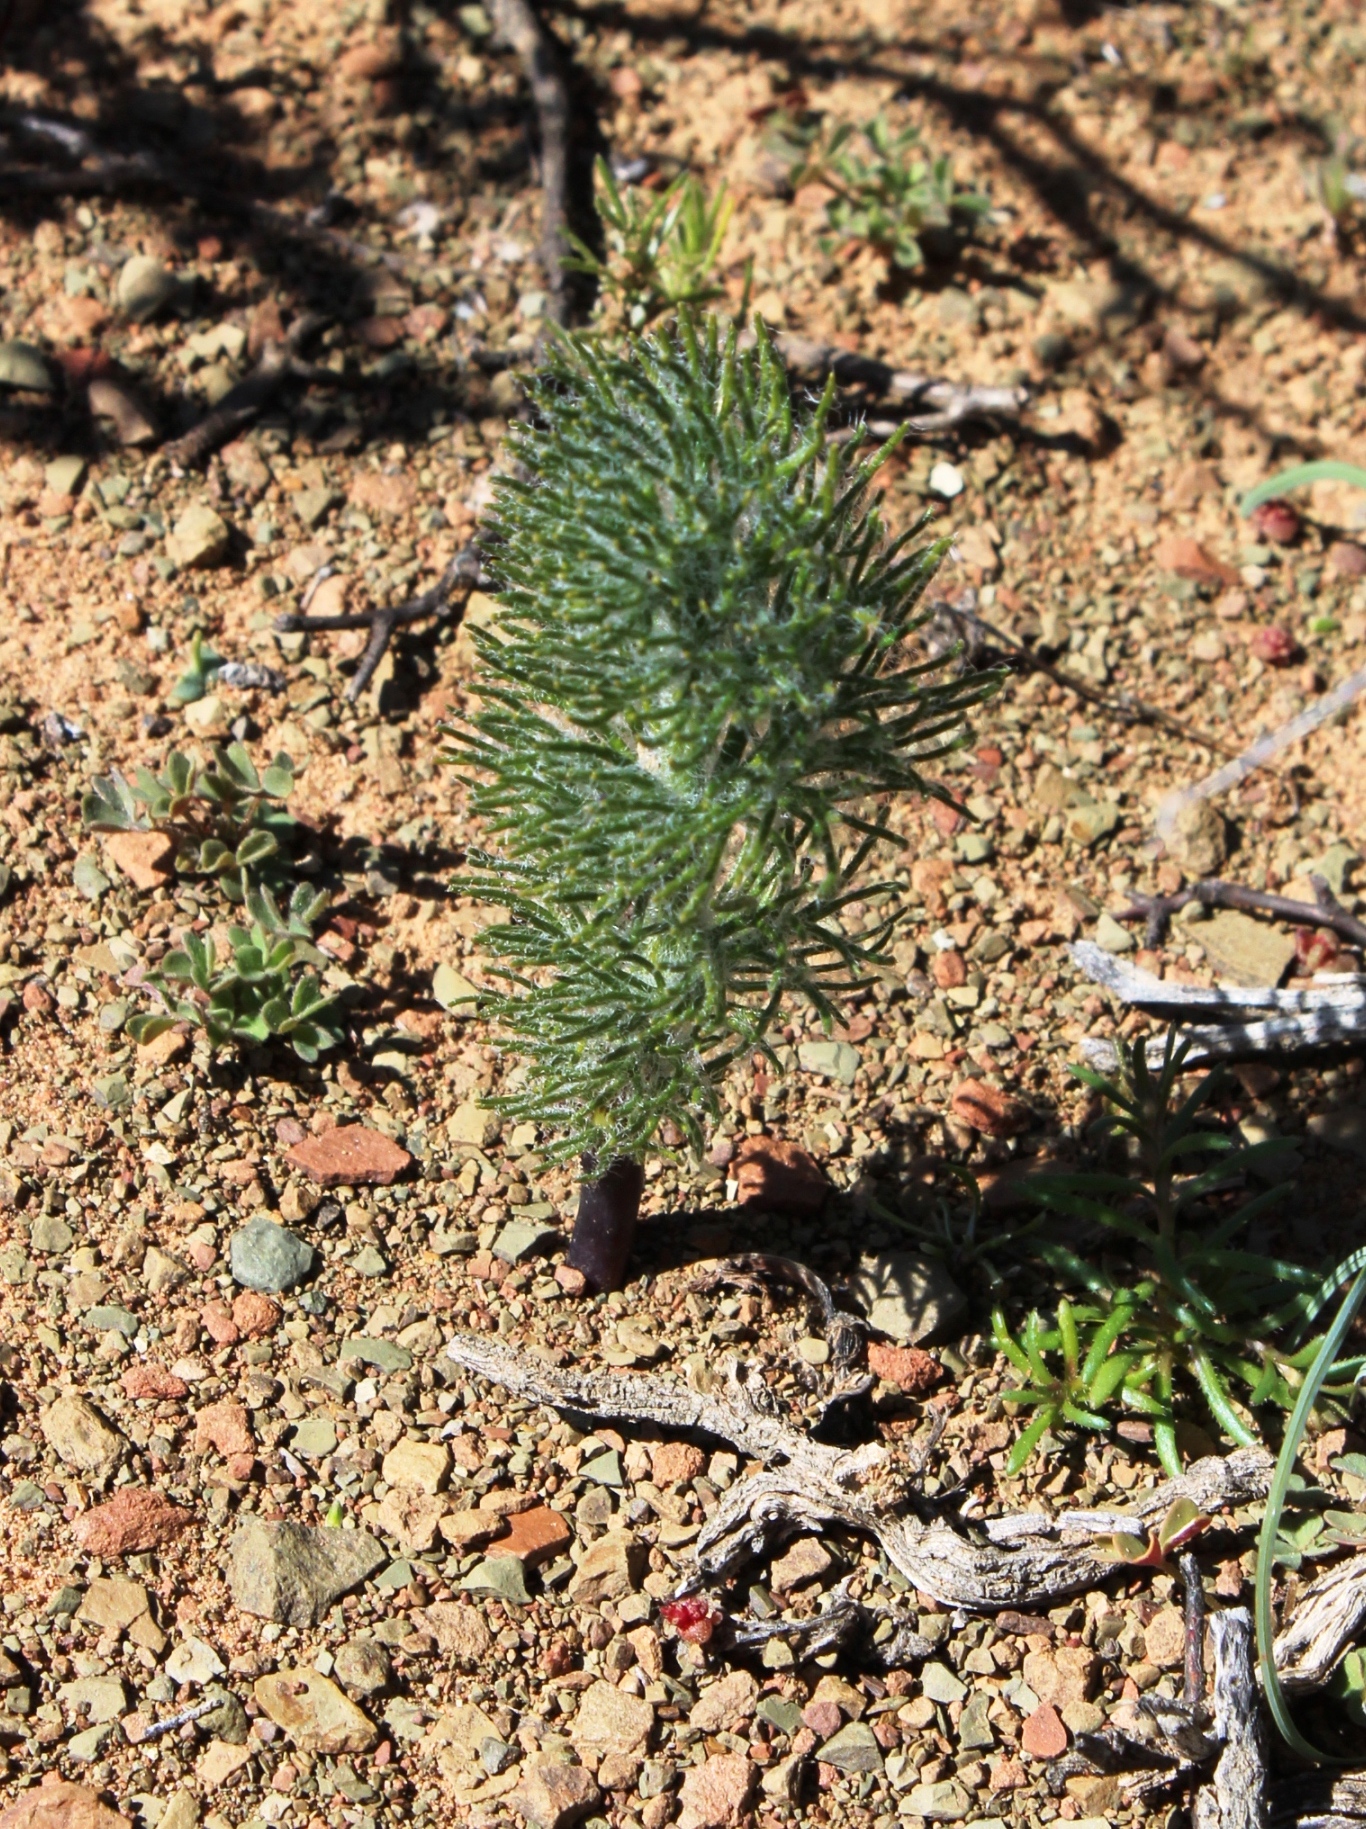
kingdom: Plantae
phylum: Tracheophyta
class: Liliopsida
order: Asparagales
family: Asparagaceae
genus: Eriospermum
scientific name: Eriospermum paradoxum
